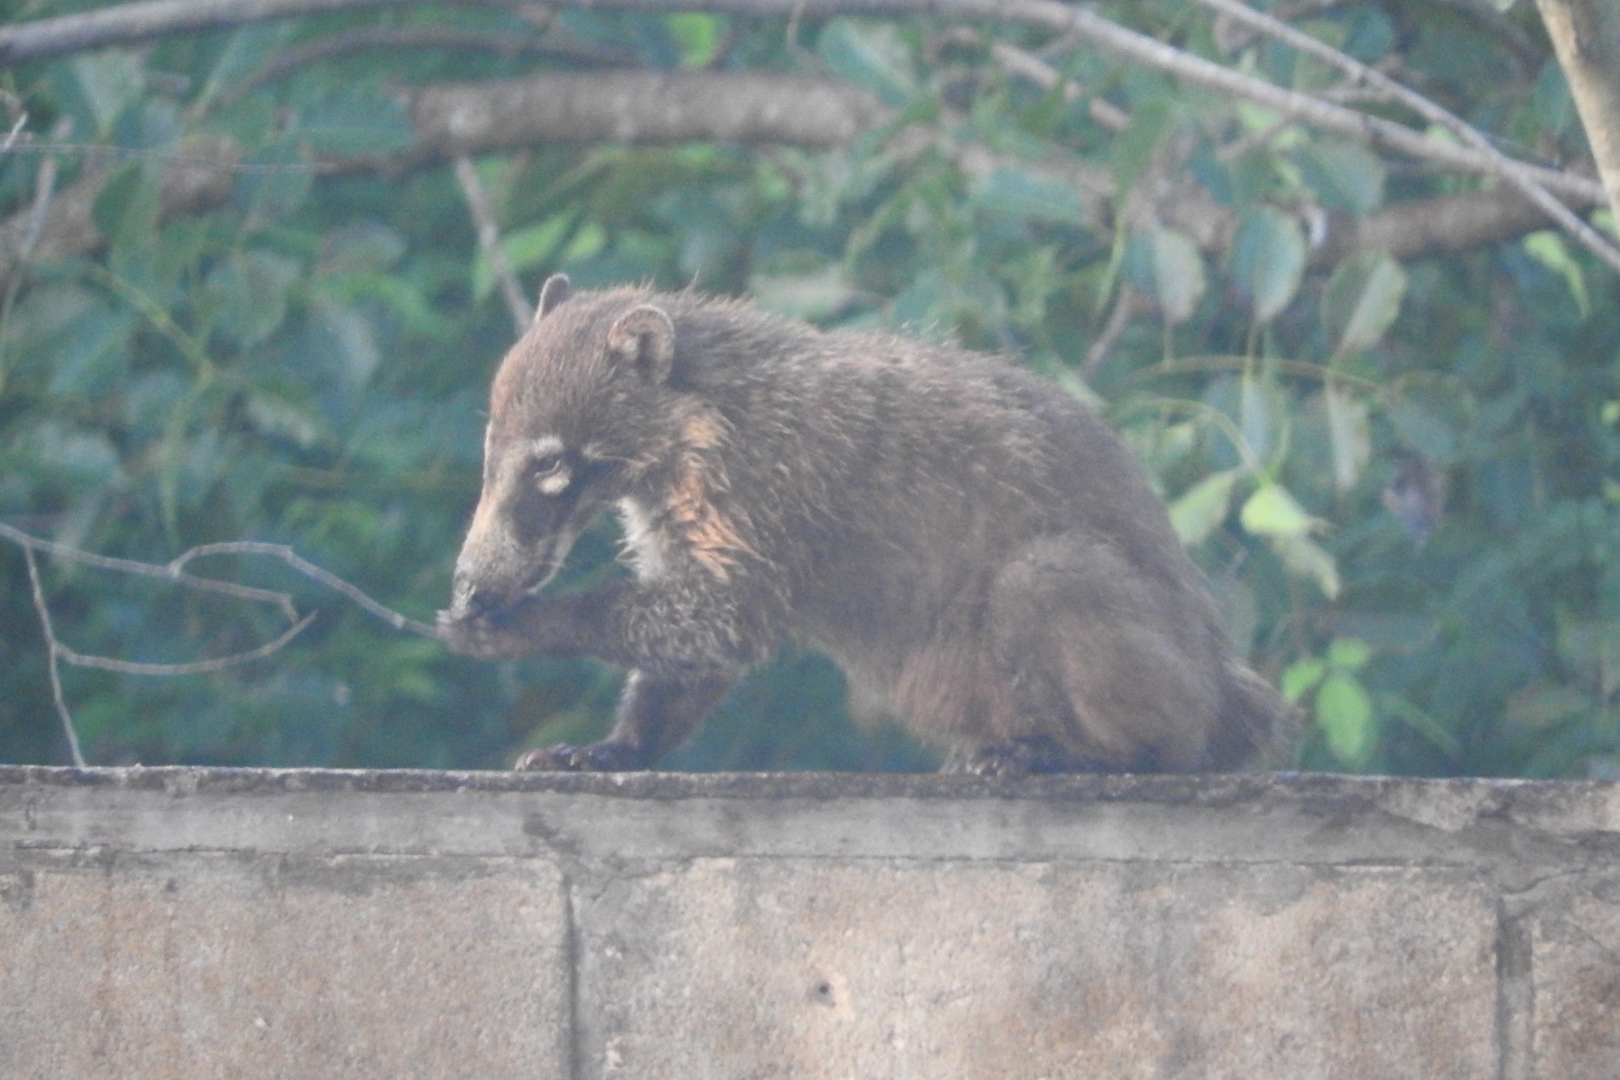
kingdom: Animalia
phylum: Chordata
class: Mammalia
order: Carnivora
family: Procyonidae
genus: Nasua
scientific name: Nasua narica
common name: White-nosed coati
